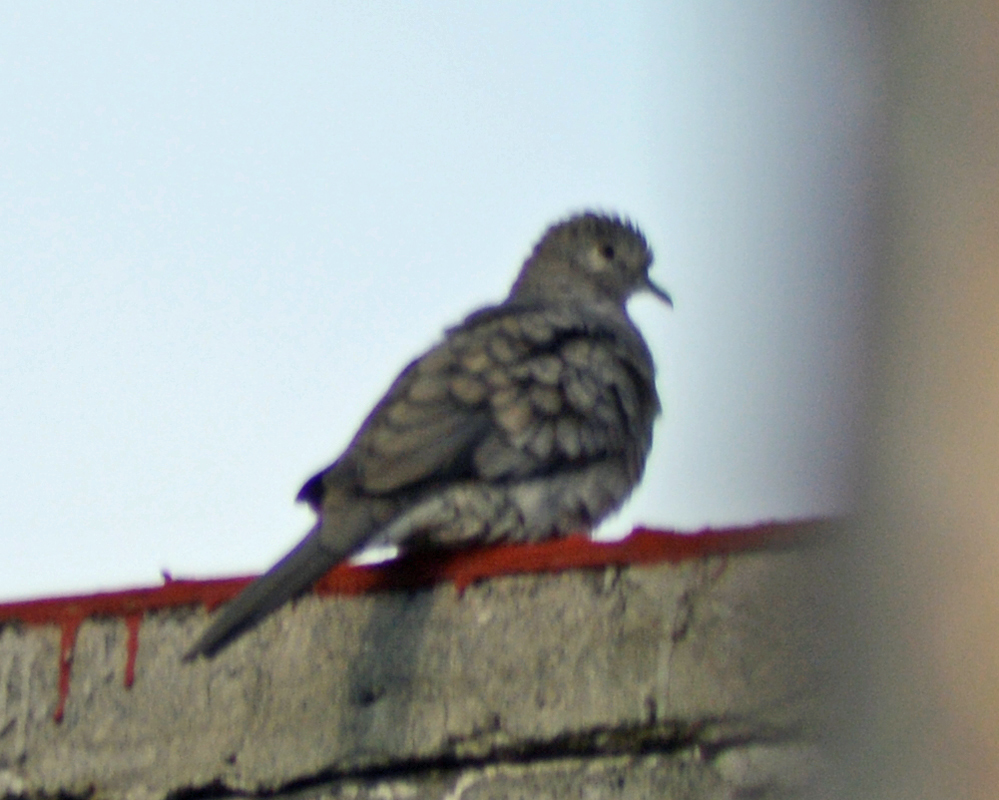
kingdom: Animalia
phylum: Chordata
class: Aves
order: Columbiformes
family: Columbidae
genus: Columbina
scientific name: Columbina inca
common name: Inca dove
